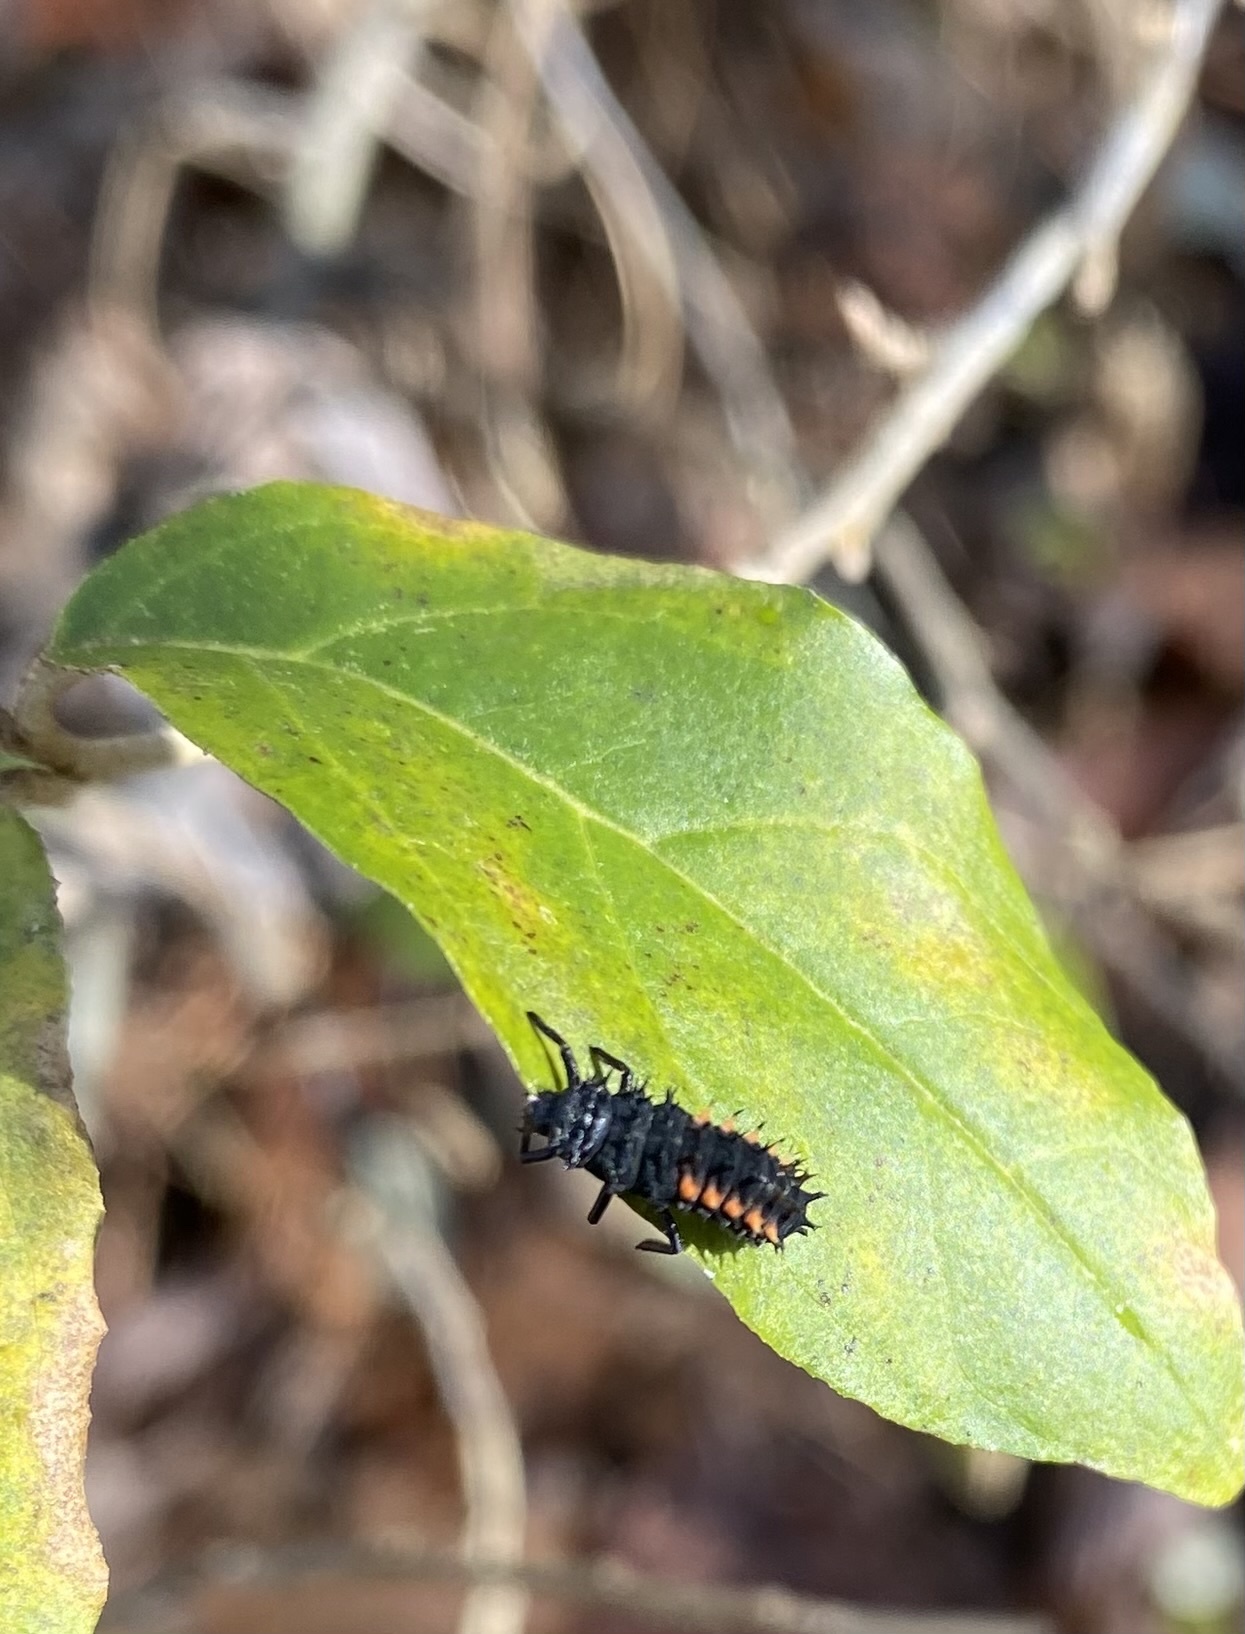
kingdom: Animalia
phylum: Arthropoda
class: Insecta
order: Coleoptera
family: Coccinellidae
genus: Harmonia
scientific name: Harmonia axyridis
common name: Harlequin ladybird
